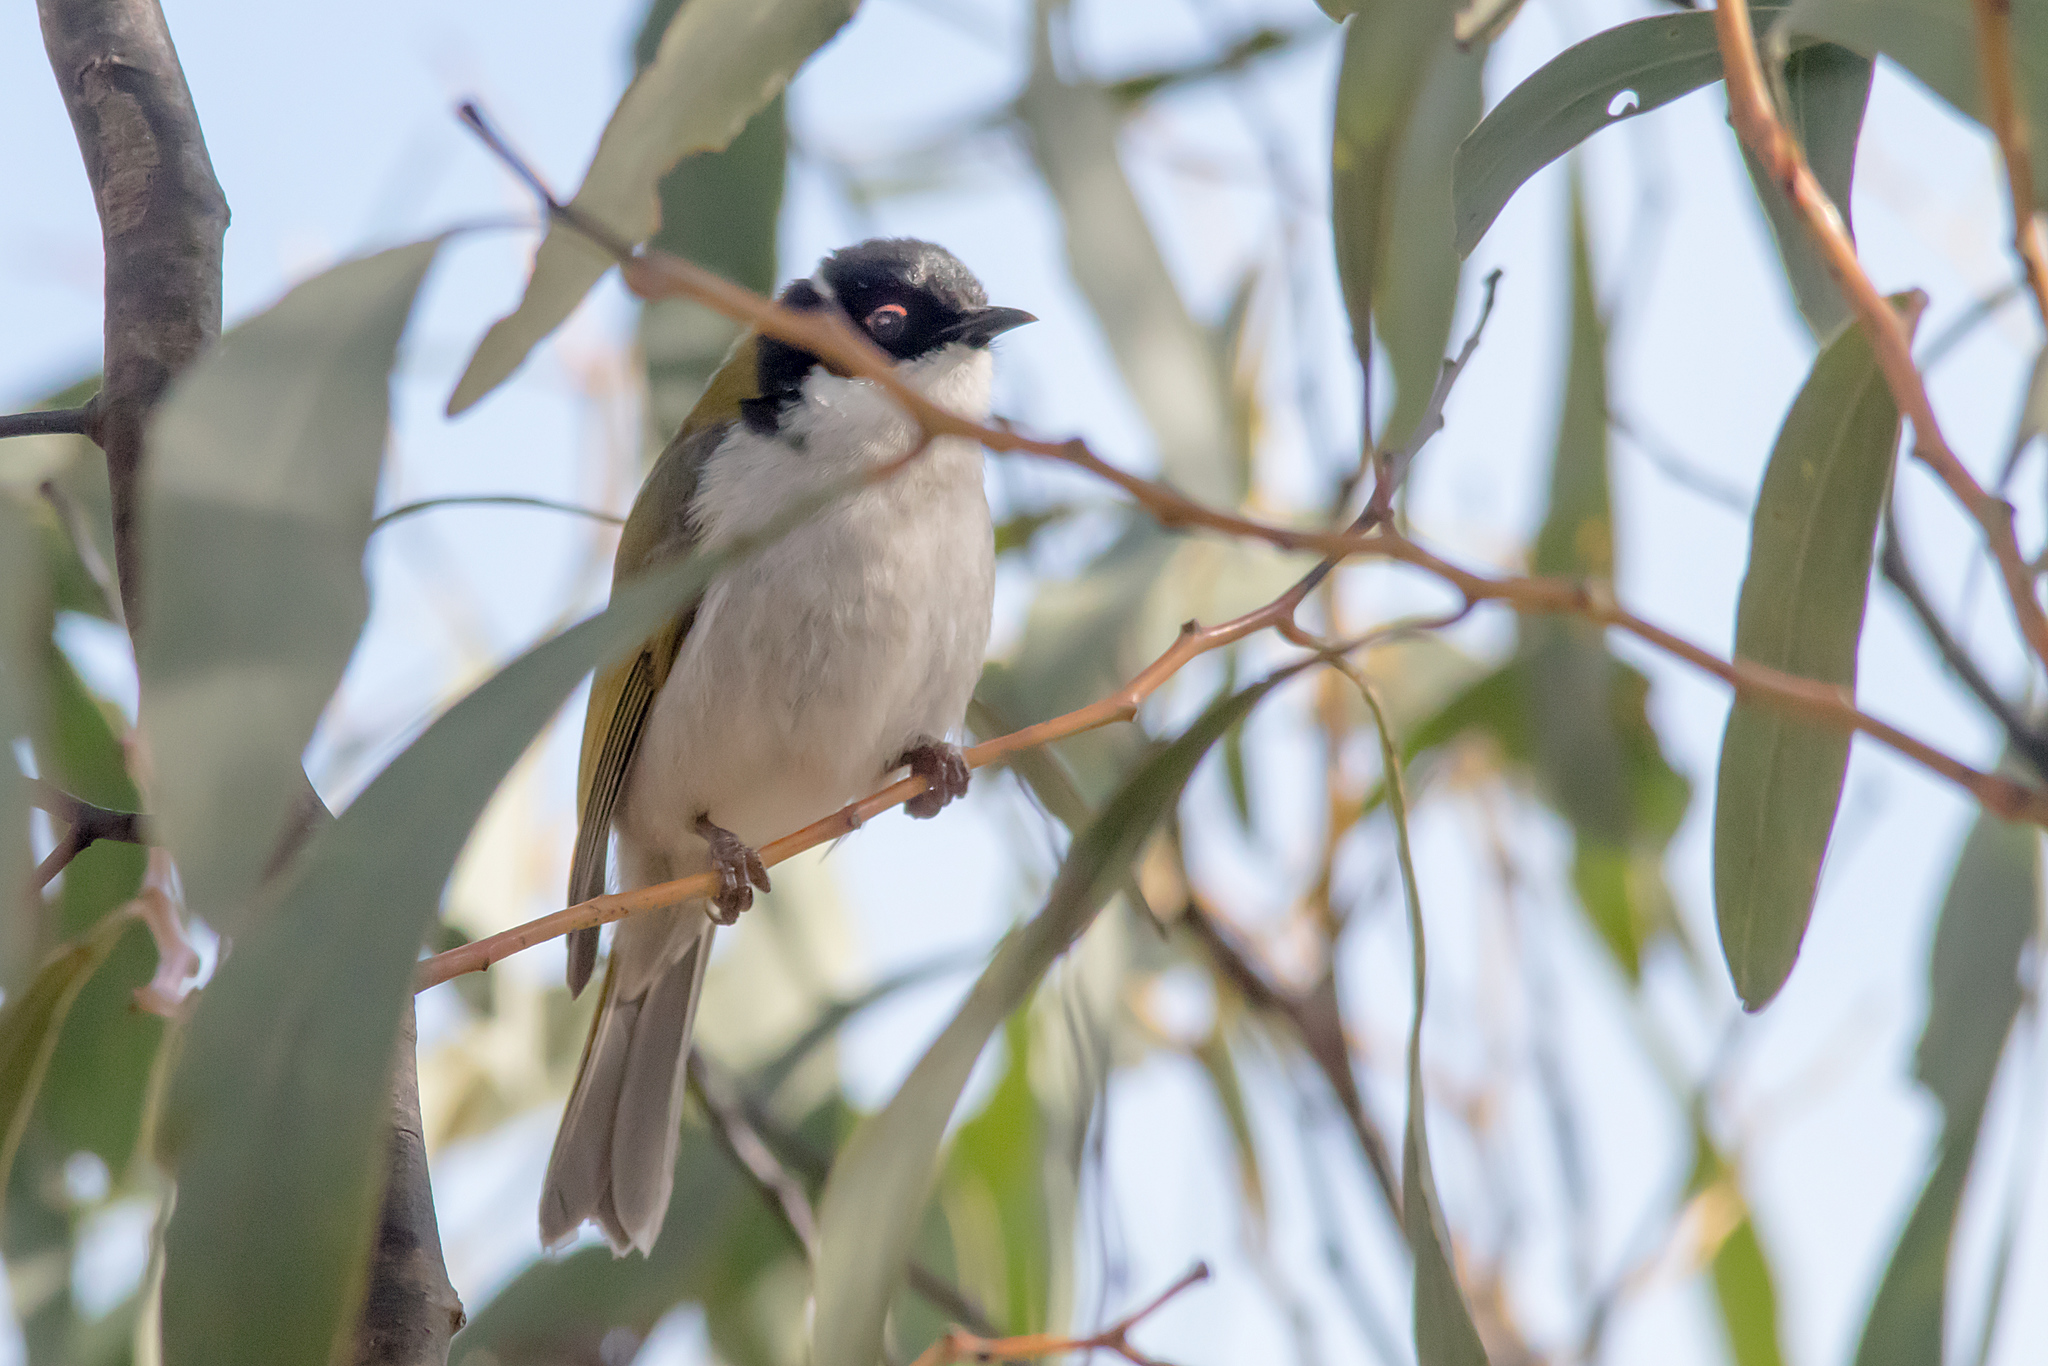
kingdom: Animalia
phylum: Chordata
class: Aves
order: Passeriformes
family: Meliphagidae
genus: Melithreptus
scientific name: Melithreptus lunatus
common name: White-naped honeyeater
